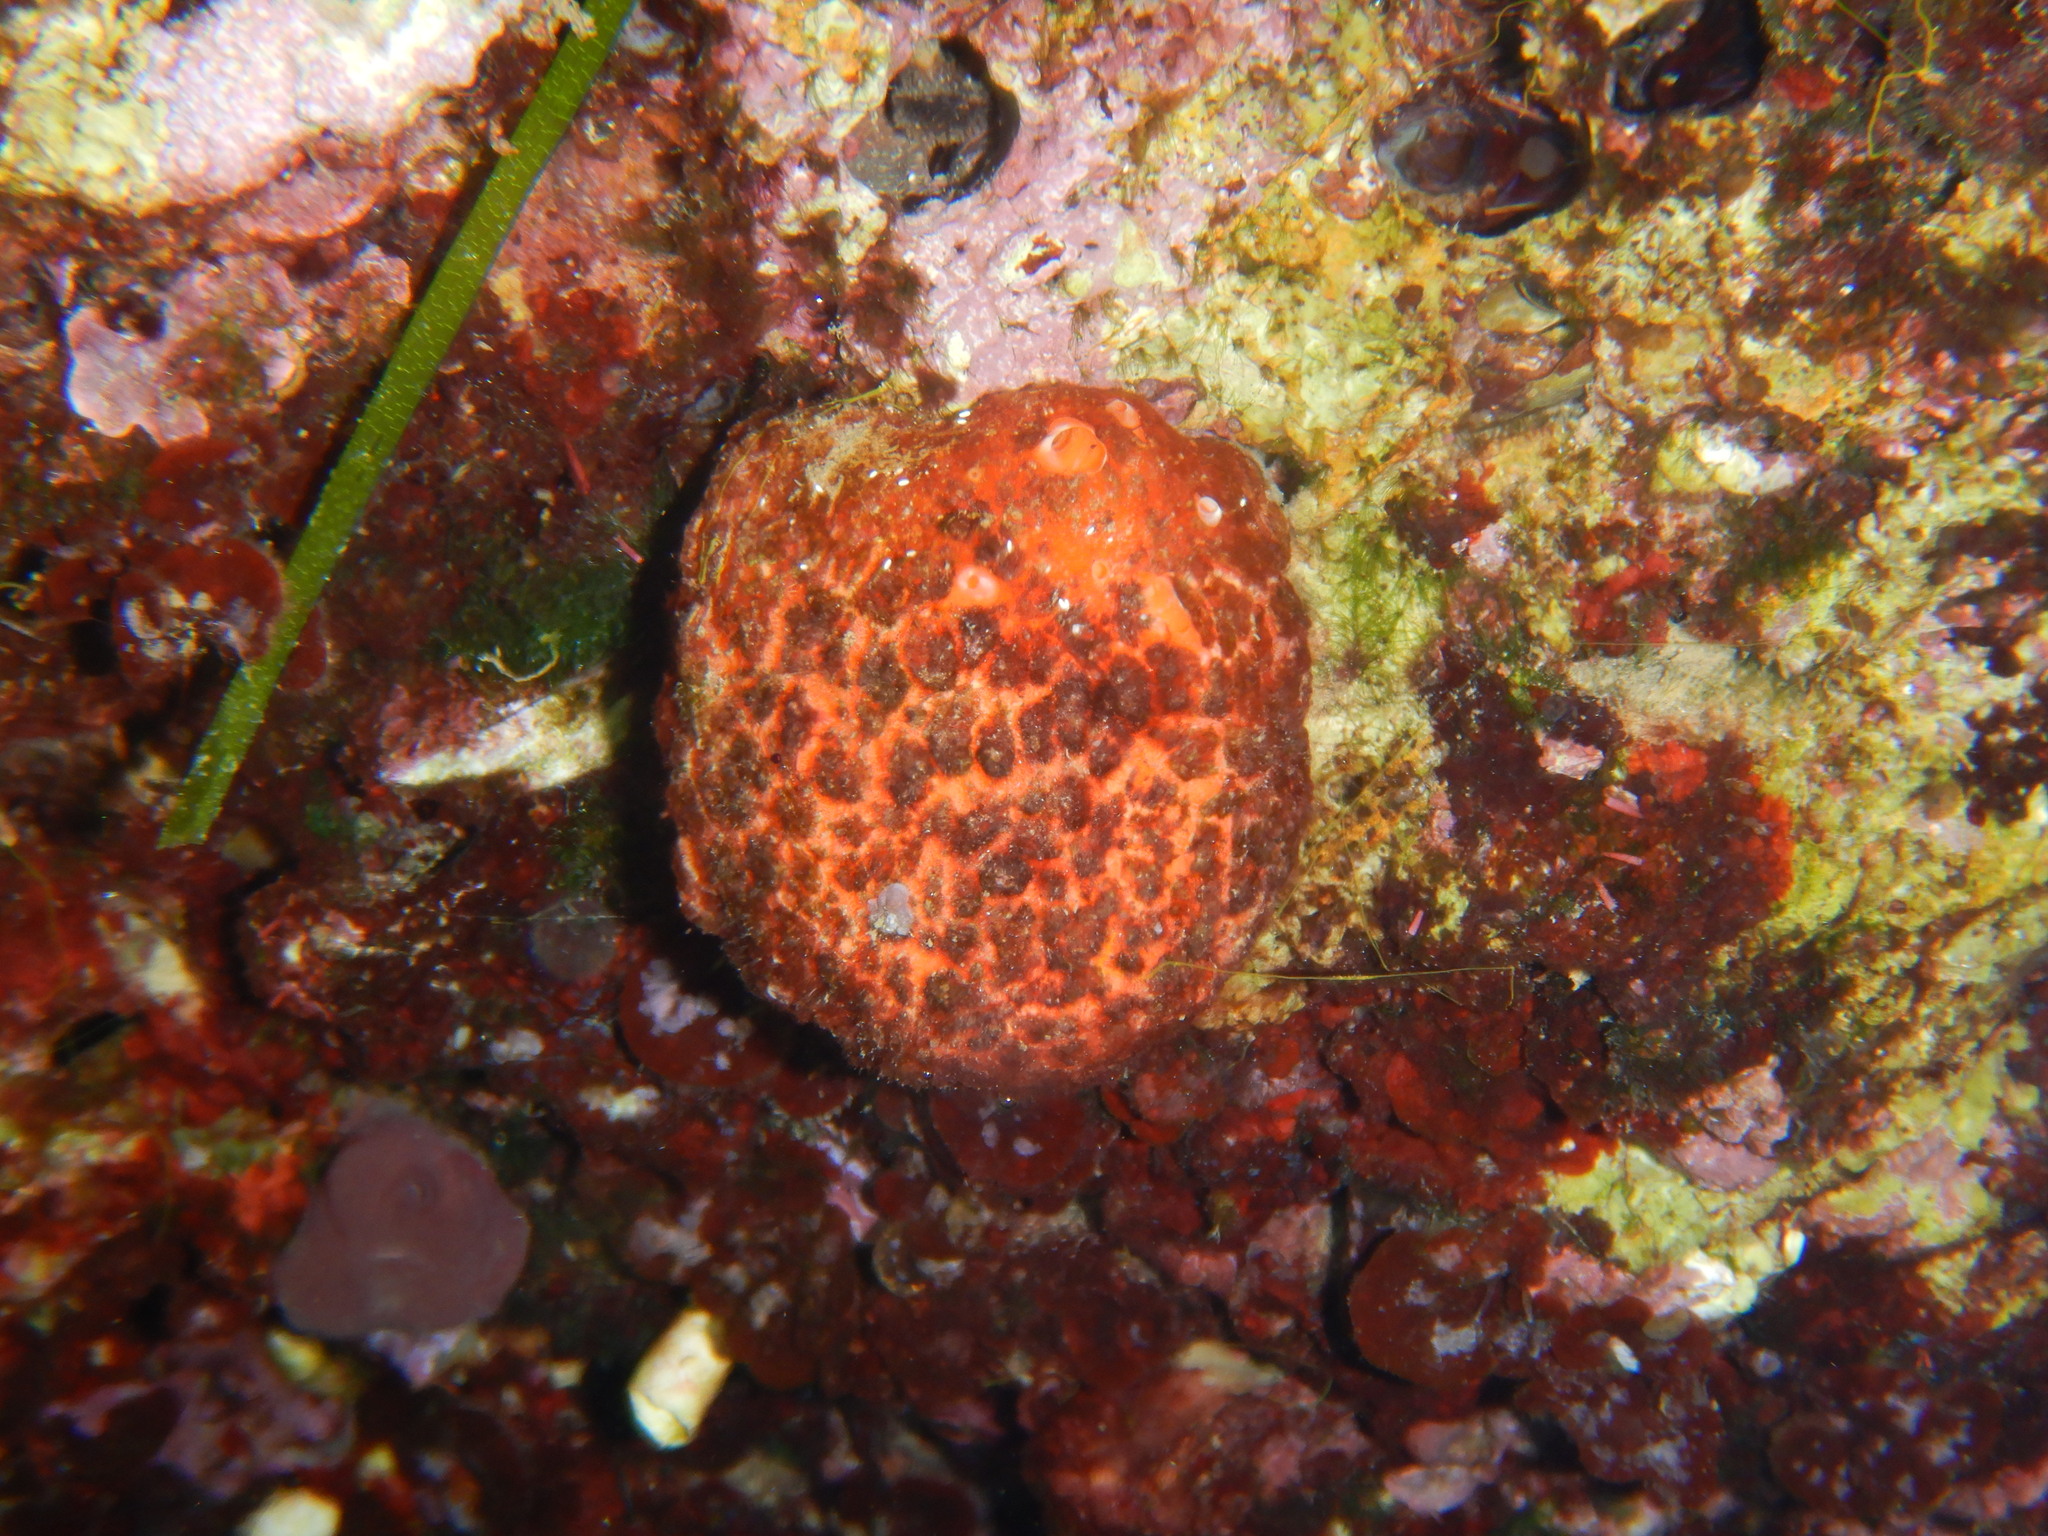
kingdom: Animalia
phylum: Porifera
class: Demospongiae
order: Tethyida
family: Tethyidae
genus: Tethya
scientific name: Tethya aurantium
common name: Golf ball sponge
